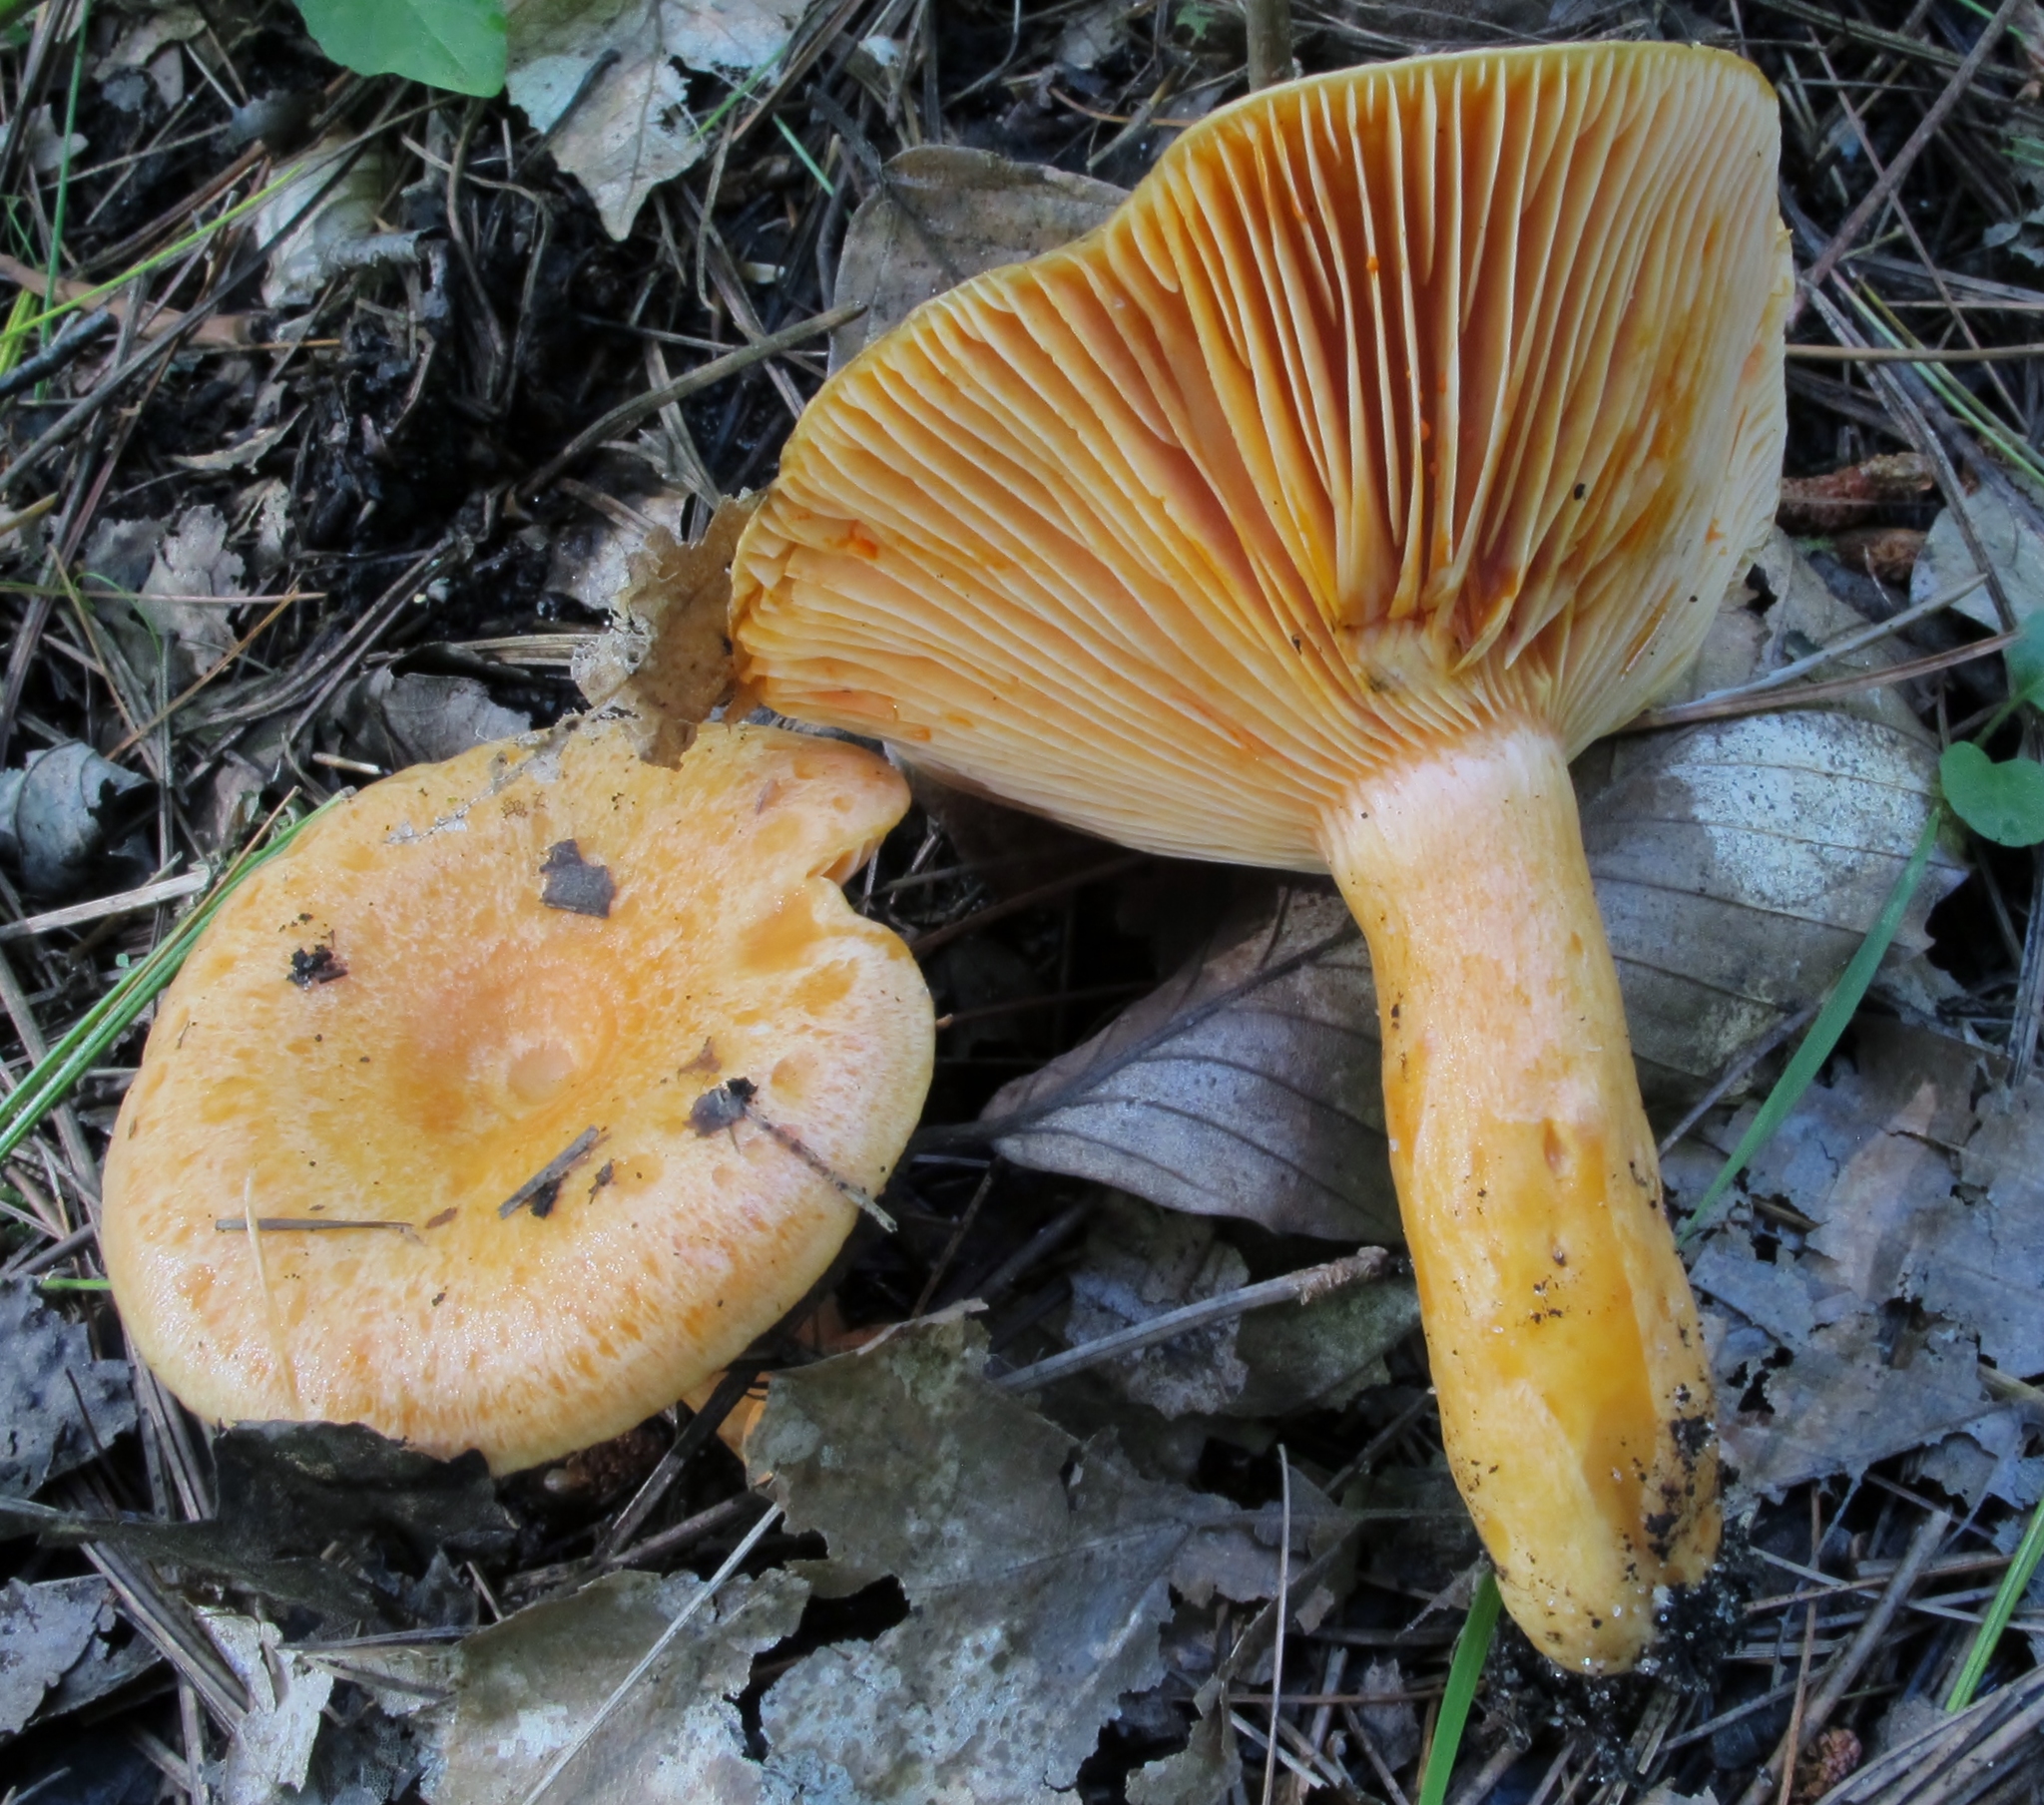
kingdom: Fungi
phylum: Basidiomycota
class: Agaricomycetes
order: Russulales
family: Russulaceae
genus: Lactarius
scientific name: Lactarius salmonicolor
